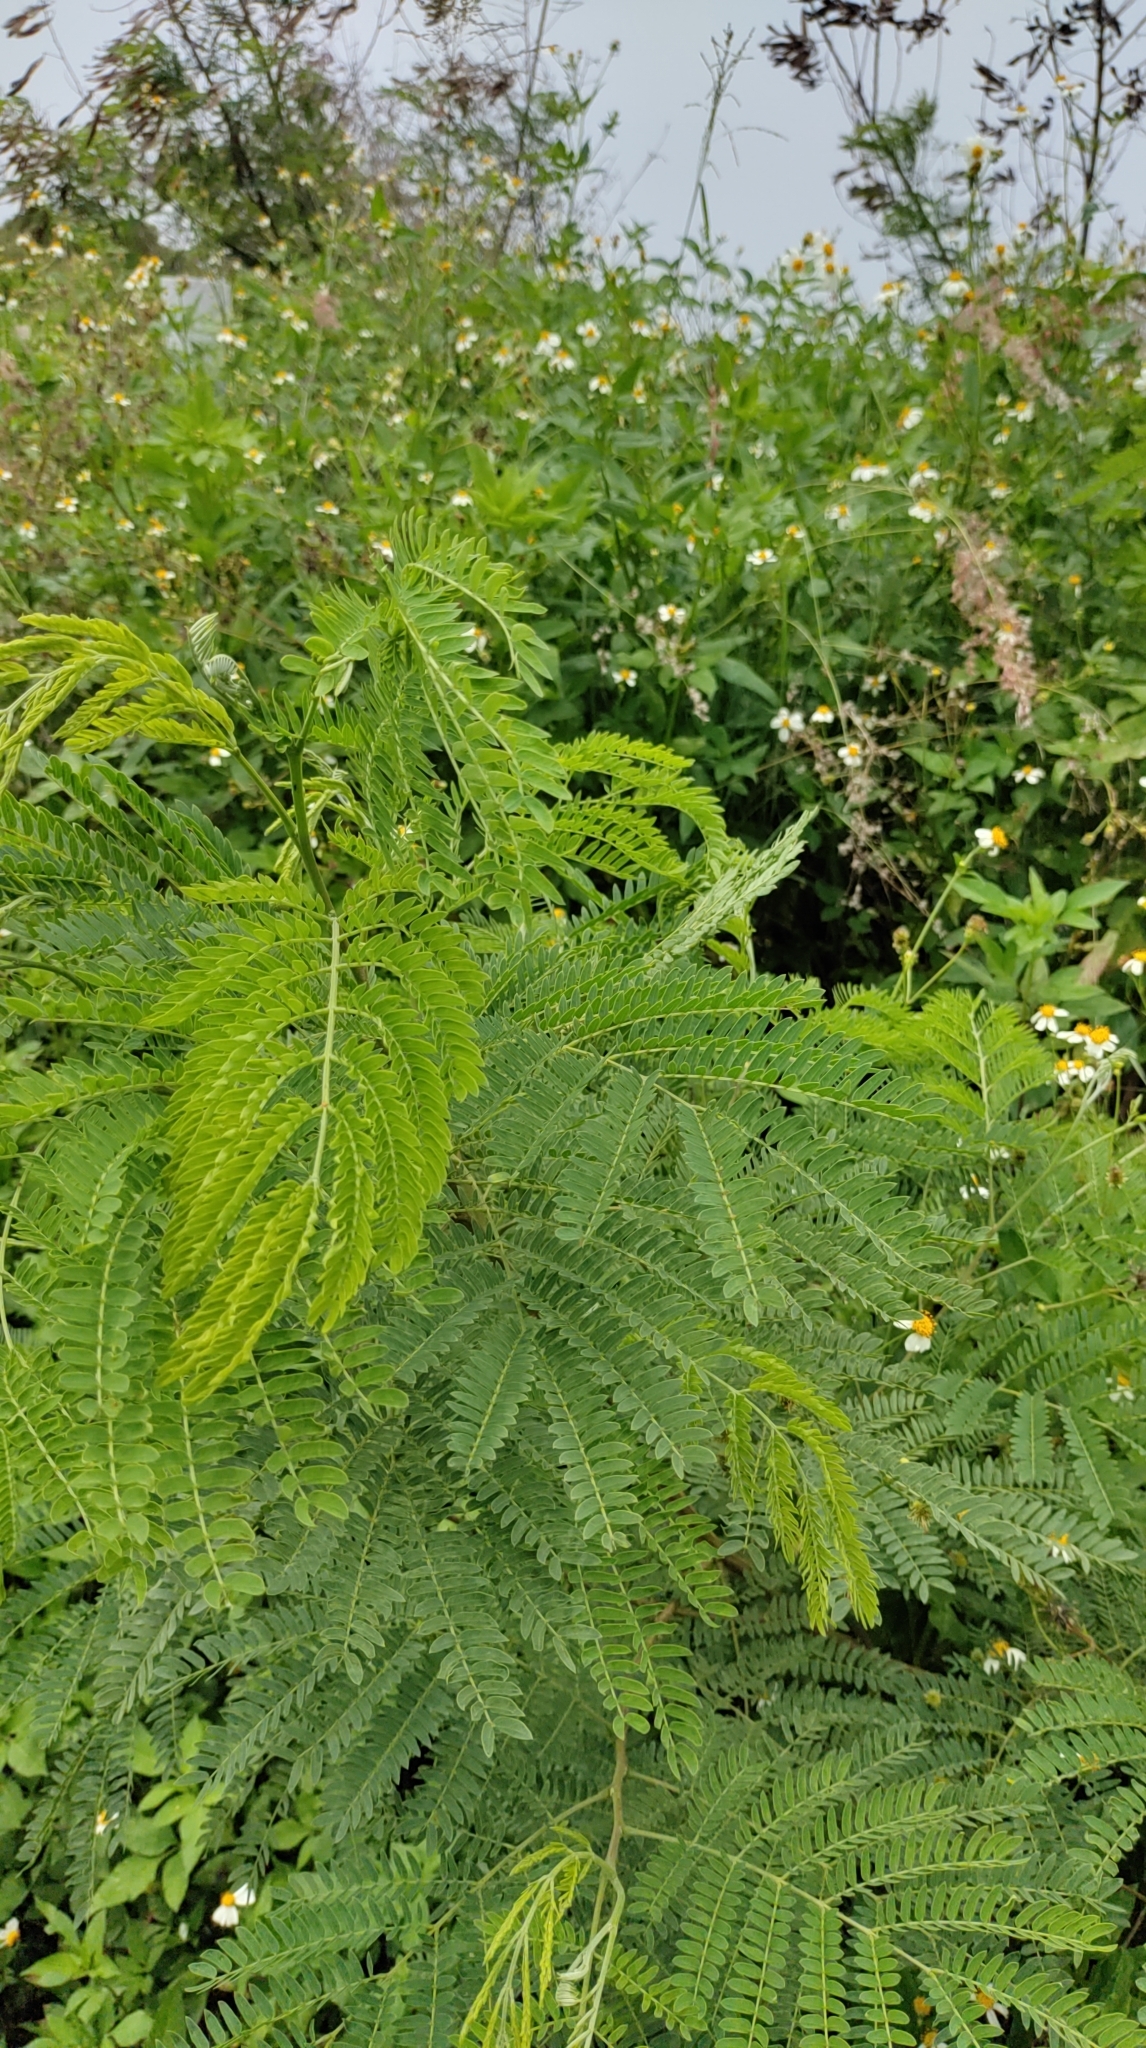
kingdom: Plantae
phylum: Tracheophyta
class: Magnoliopsida
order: Fabales
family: Fabaceae
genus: Leucaena
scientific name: Leucaena leucocephala
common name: White leadtree
